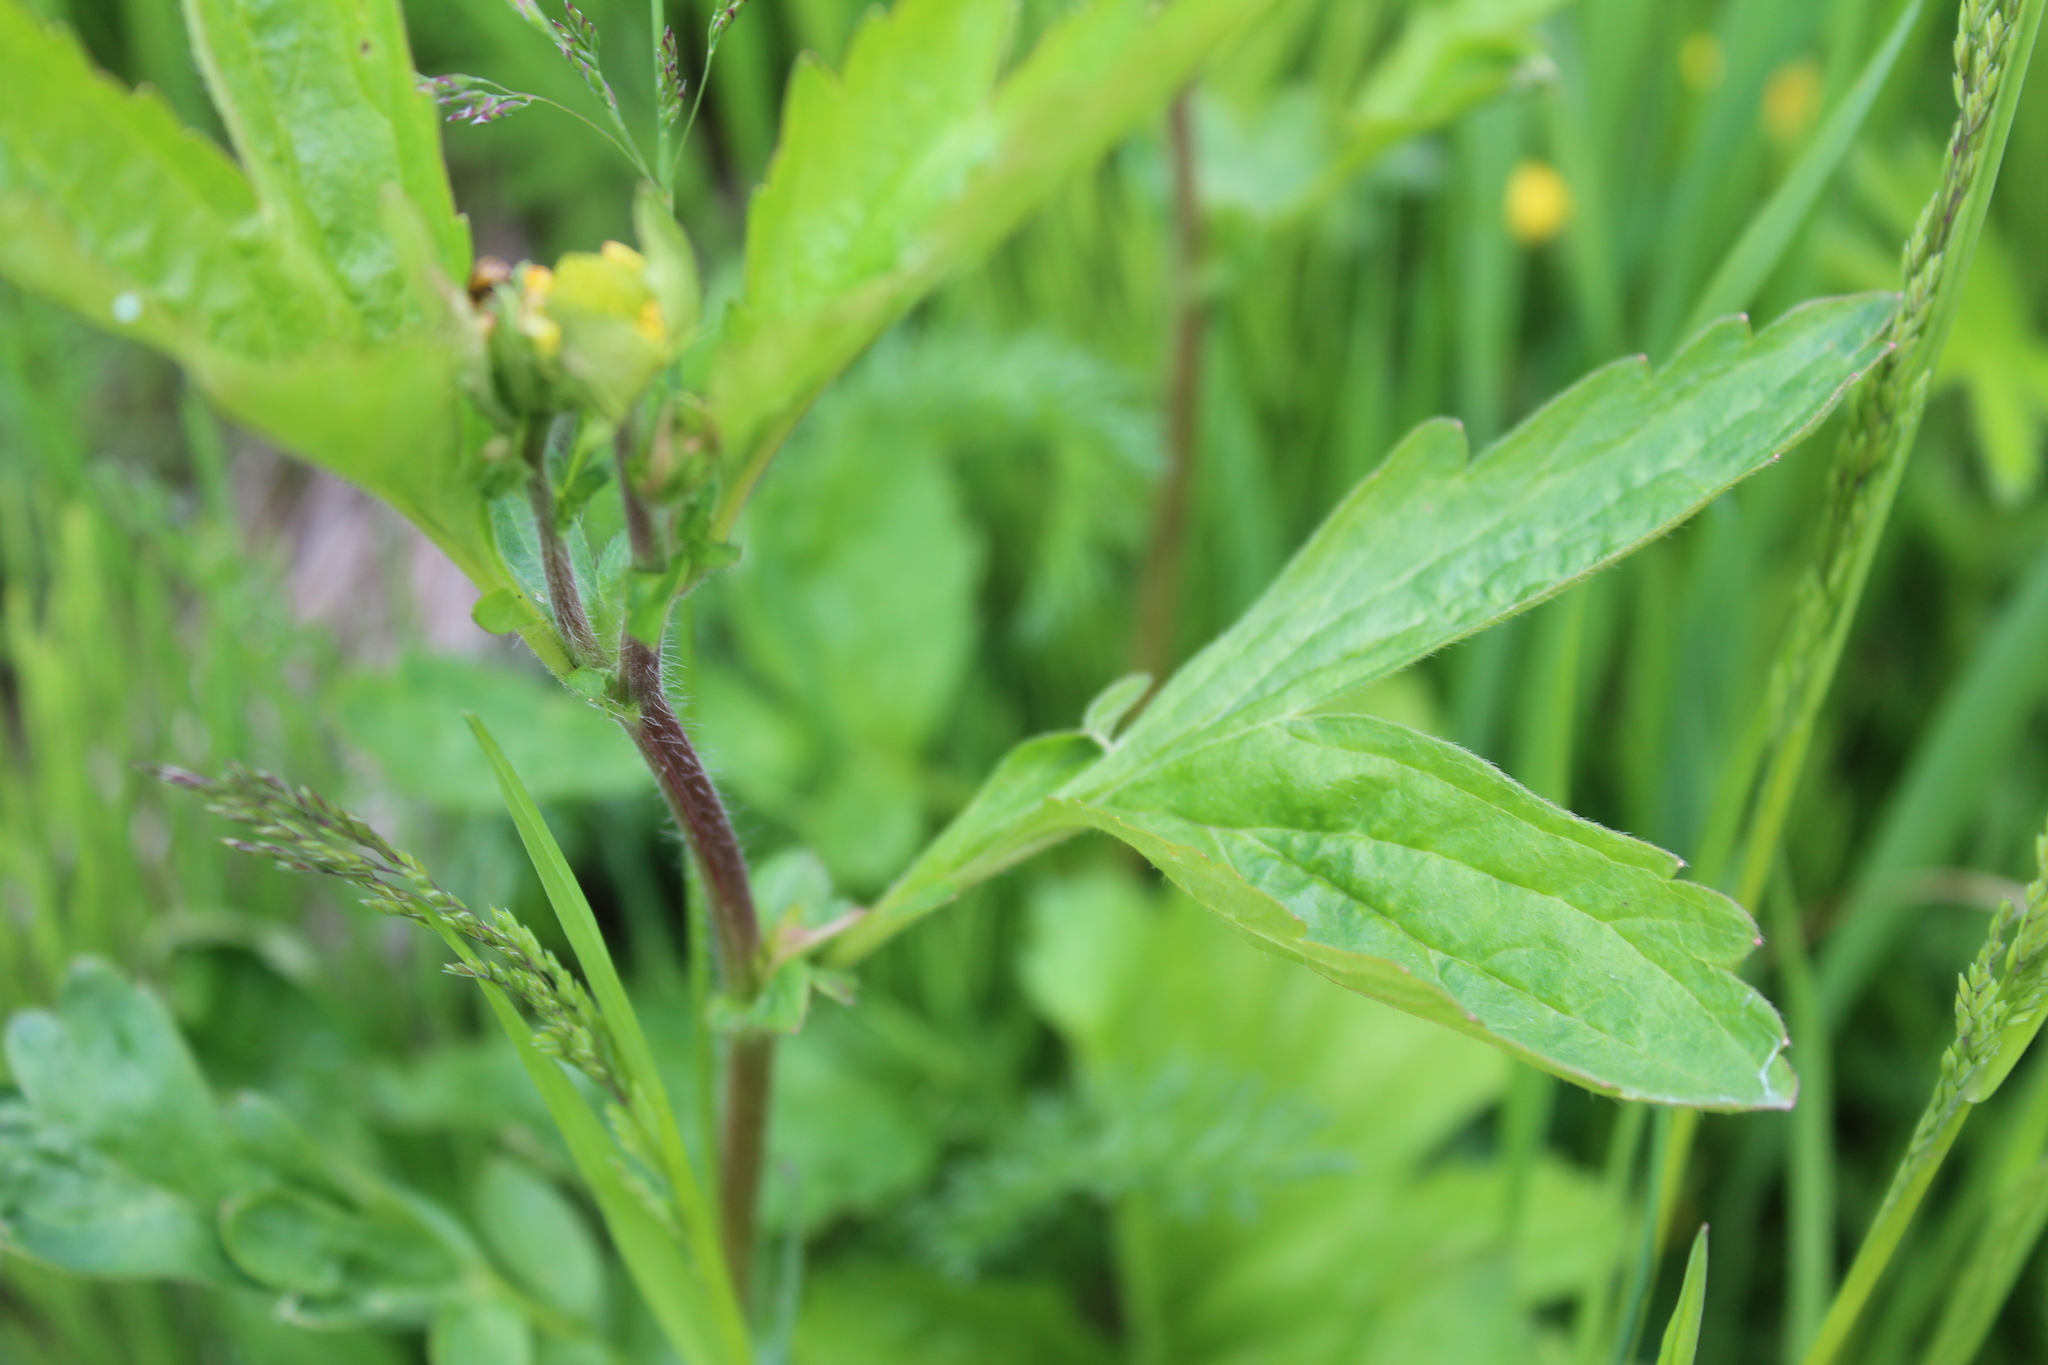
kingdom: Plantae
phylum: Tracheophyta
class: Magnoliopsida
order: Rosales
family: Rosaceae
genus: Geum
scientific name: Geum aleppicum
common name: Yellow avens
